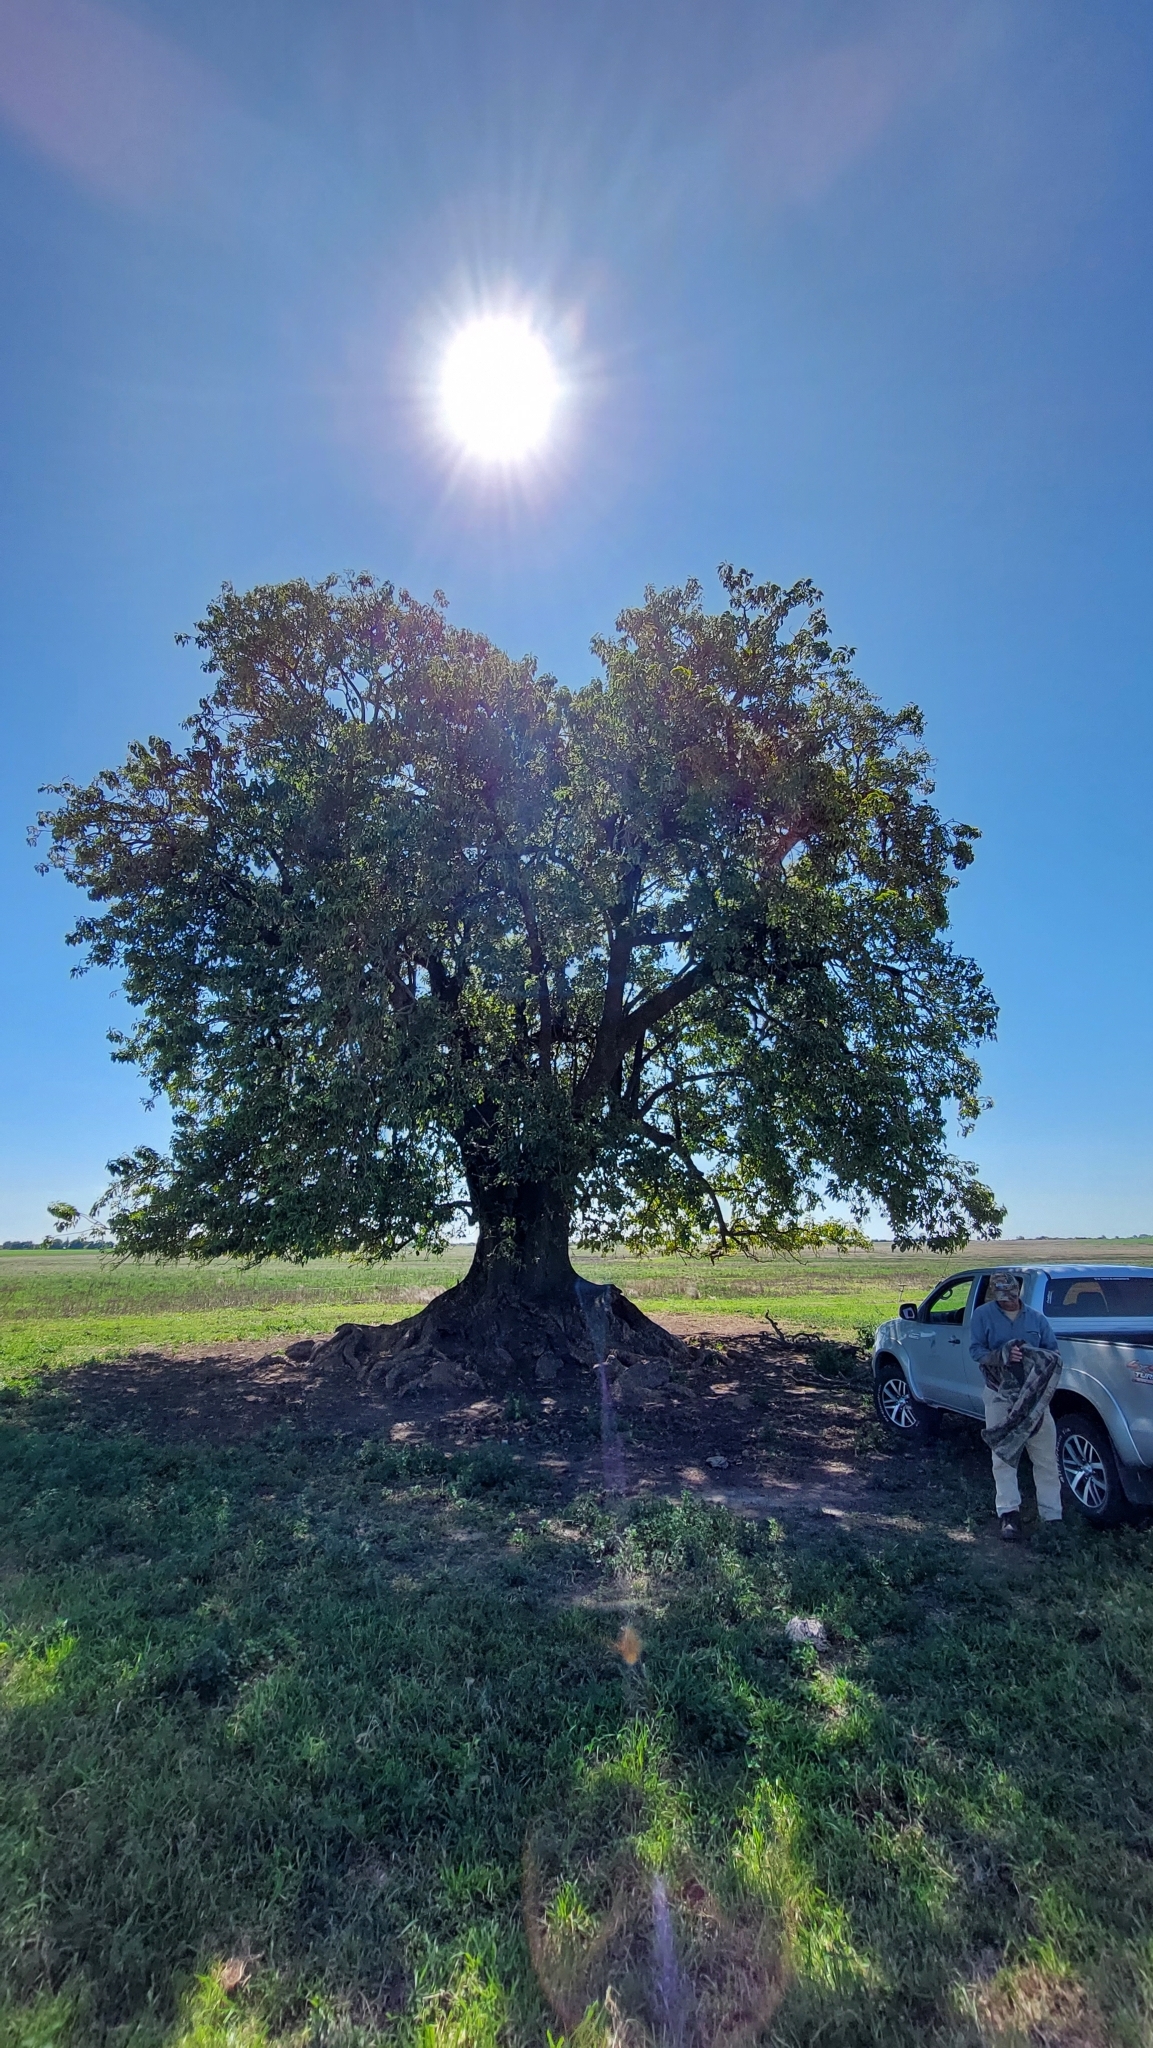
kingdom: Plantae
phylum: Tracheophyta
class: Magnoliopsida
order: Caryophyllales
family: Phytolaccaceae
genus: Phytolacca
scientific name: Phytolacca dioica
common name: Pokeweed
